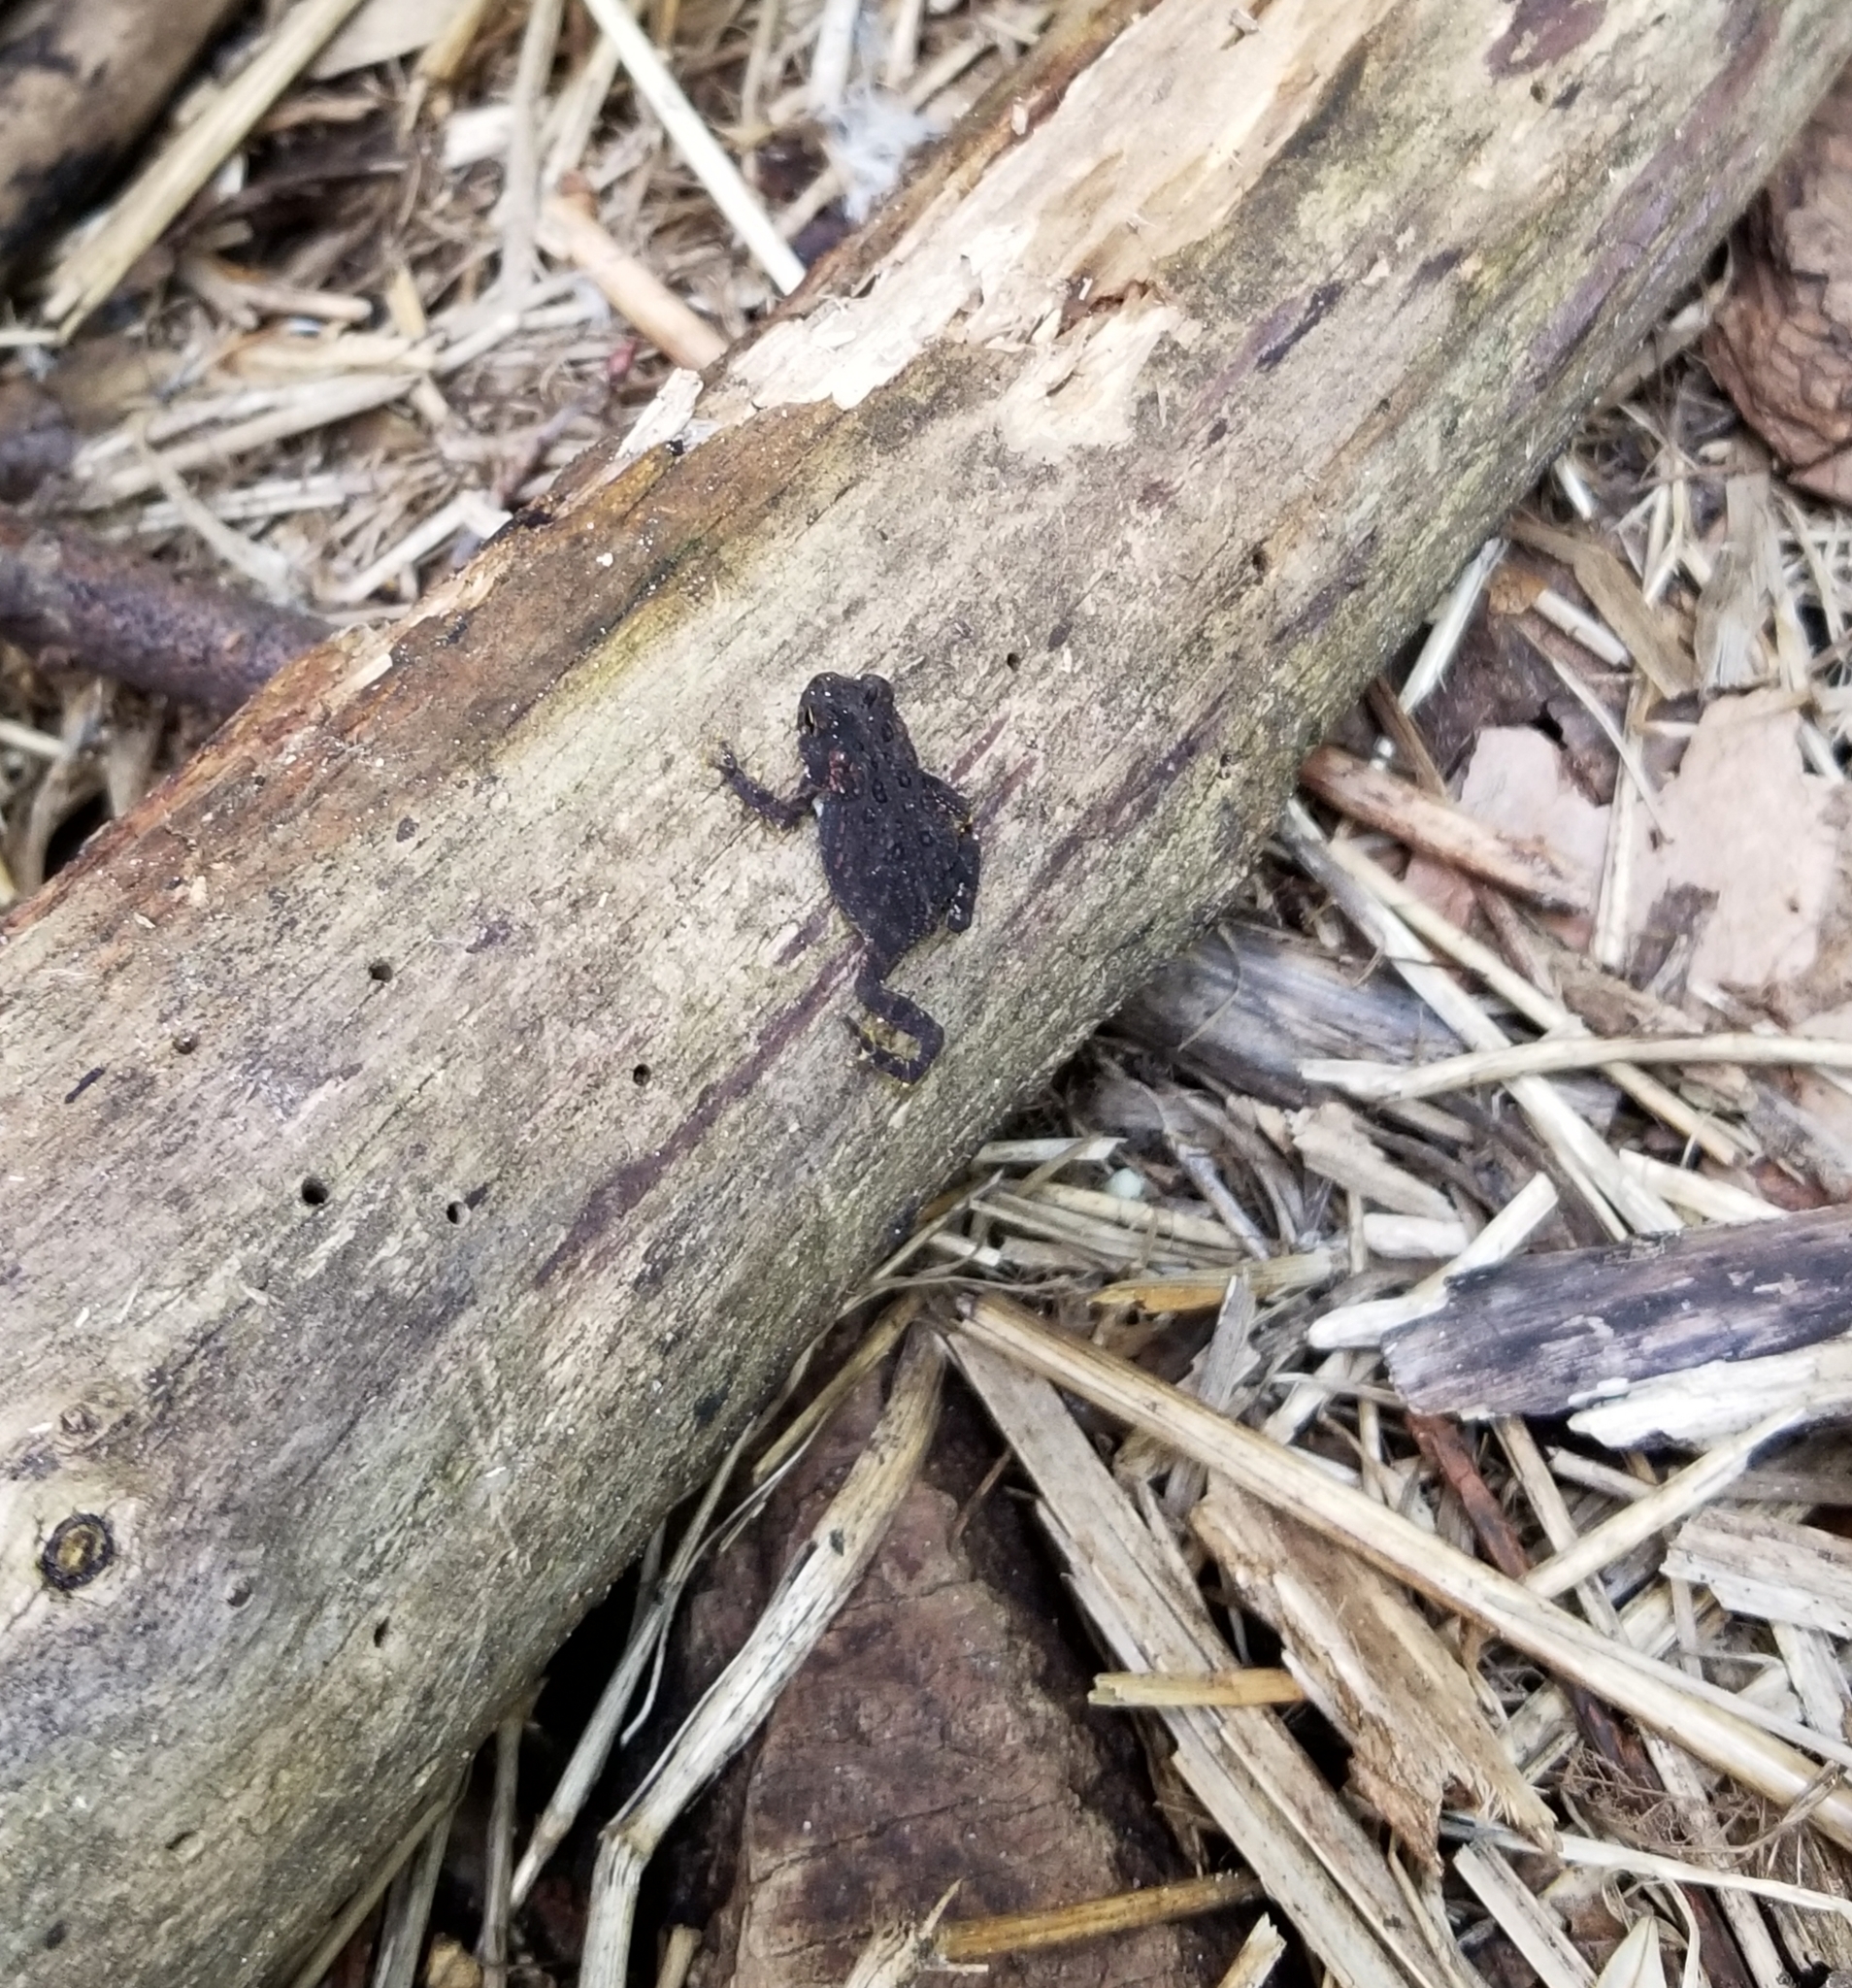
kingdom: Animalia
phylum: Chordata
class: Amphibia
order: Anura
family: Bufonidae
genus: Anaxyrus
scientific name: Anaxyrus americanus
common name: American toad
